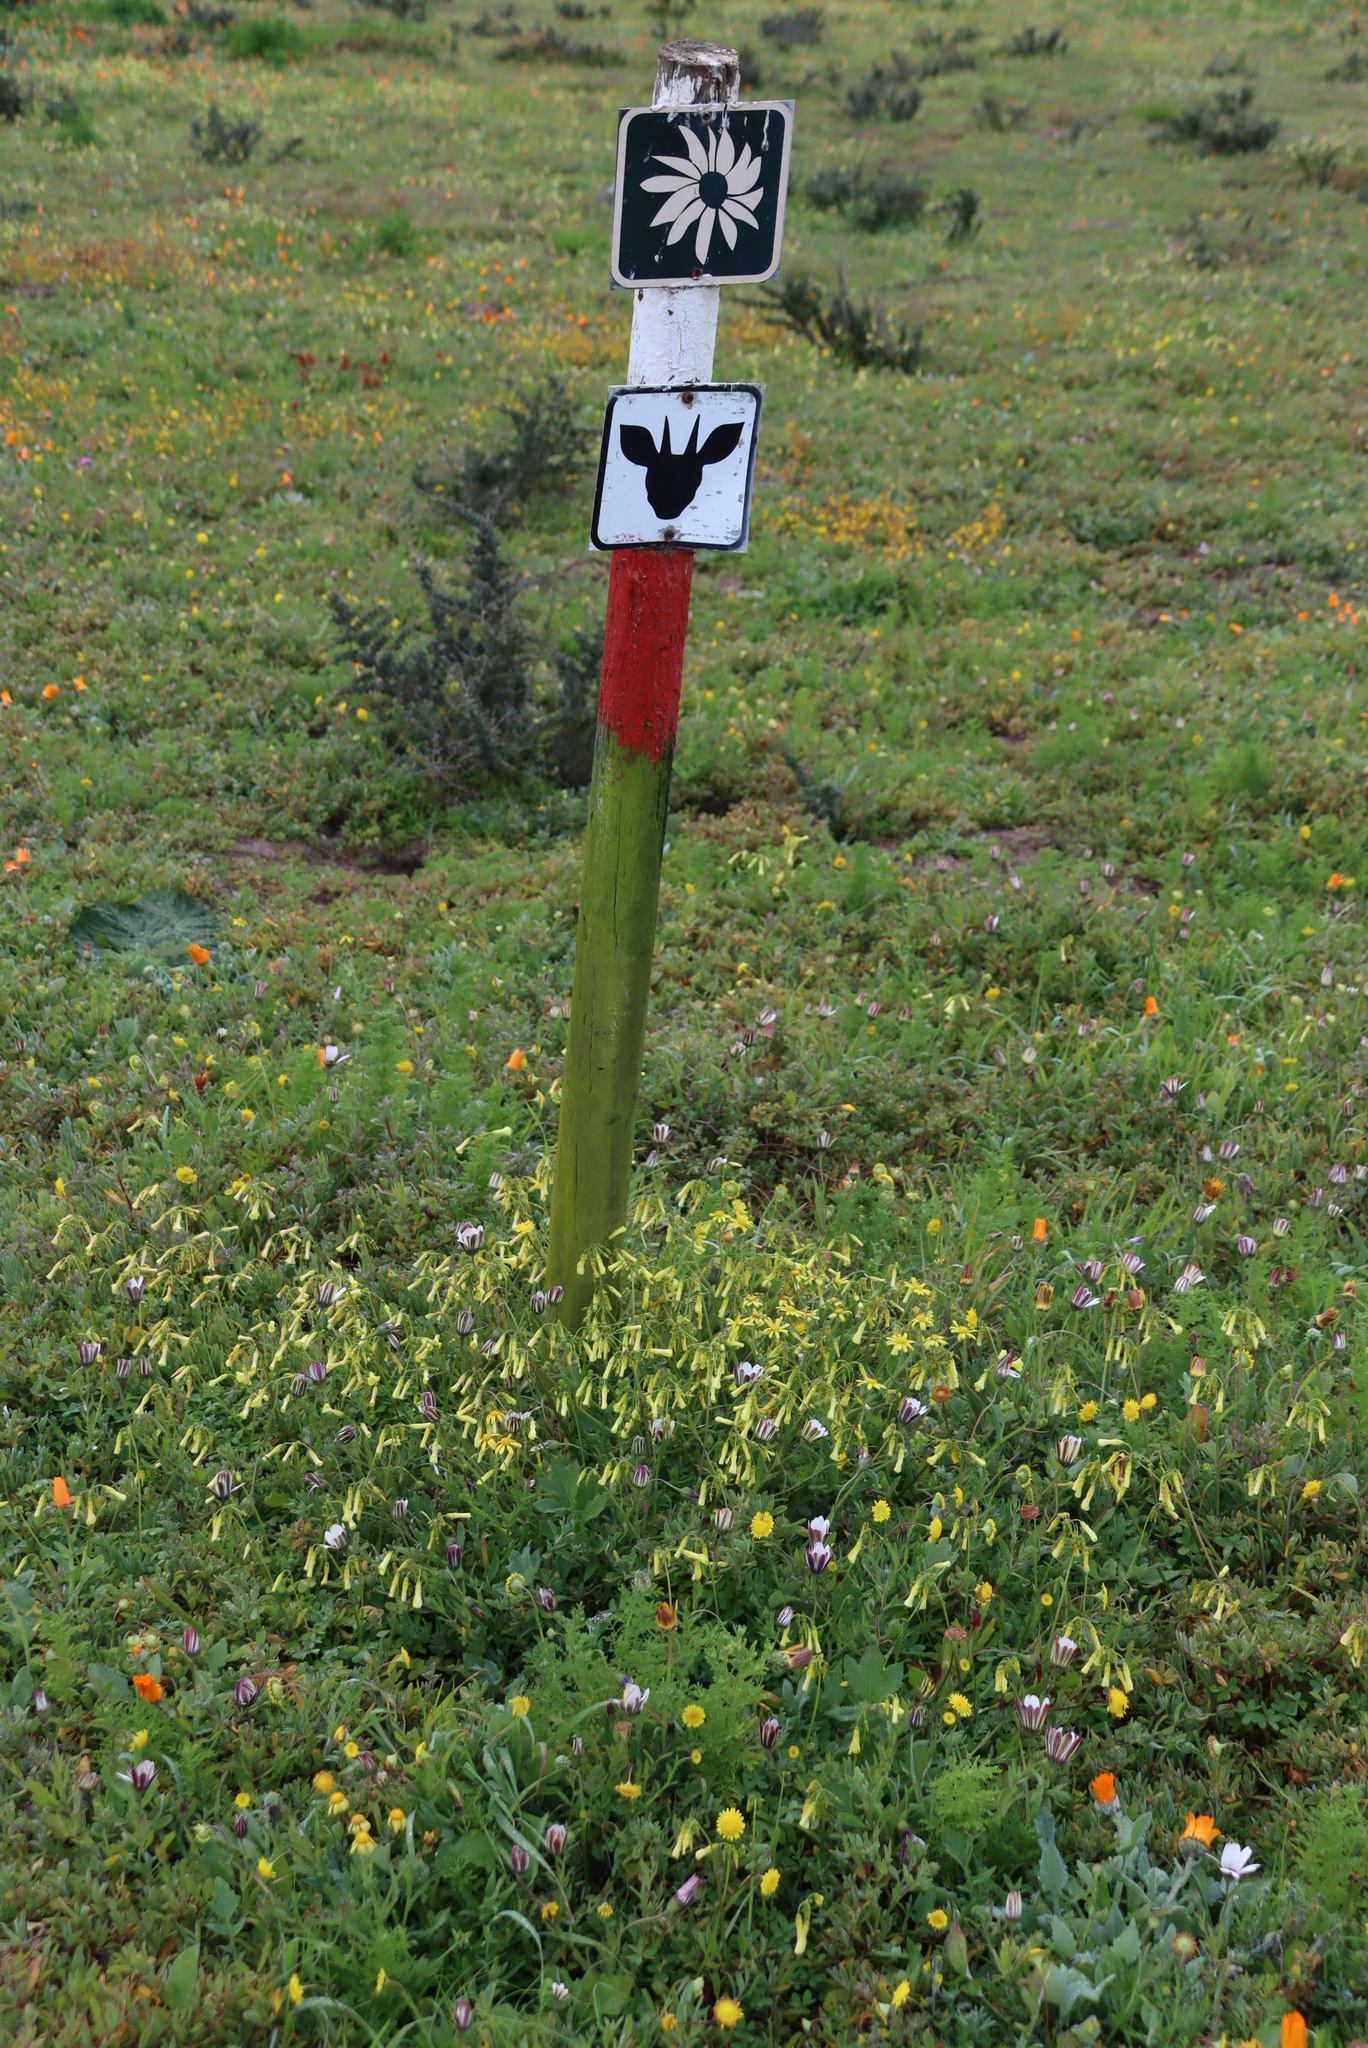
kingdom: Plantae
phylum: Tracheophyta
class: Magnoliopsida
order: Oxalidales
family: Oxalidaceae
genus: Oxalis
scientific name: Oxalis pes-caprae
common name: Bermuda-buttercup
